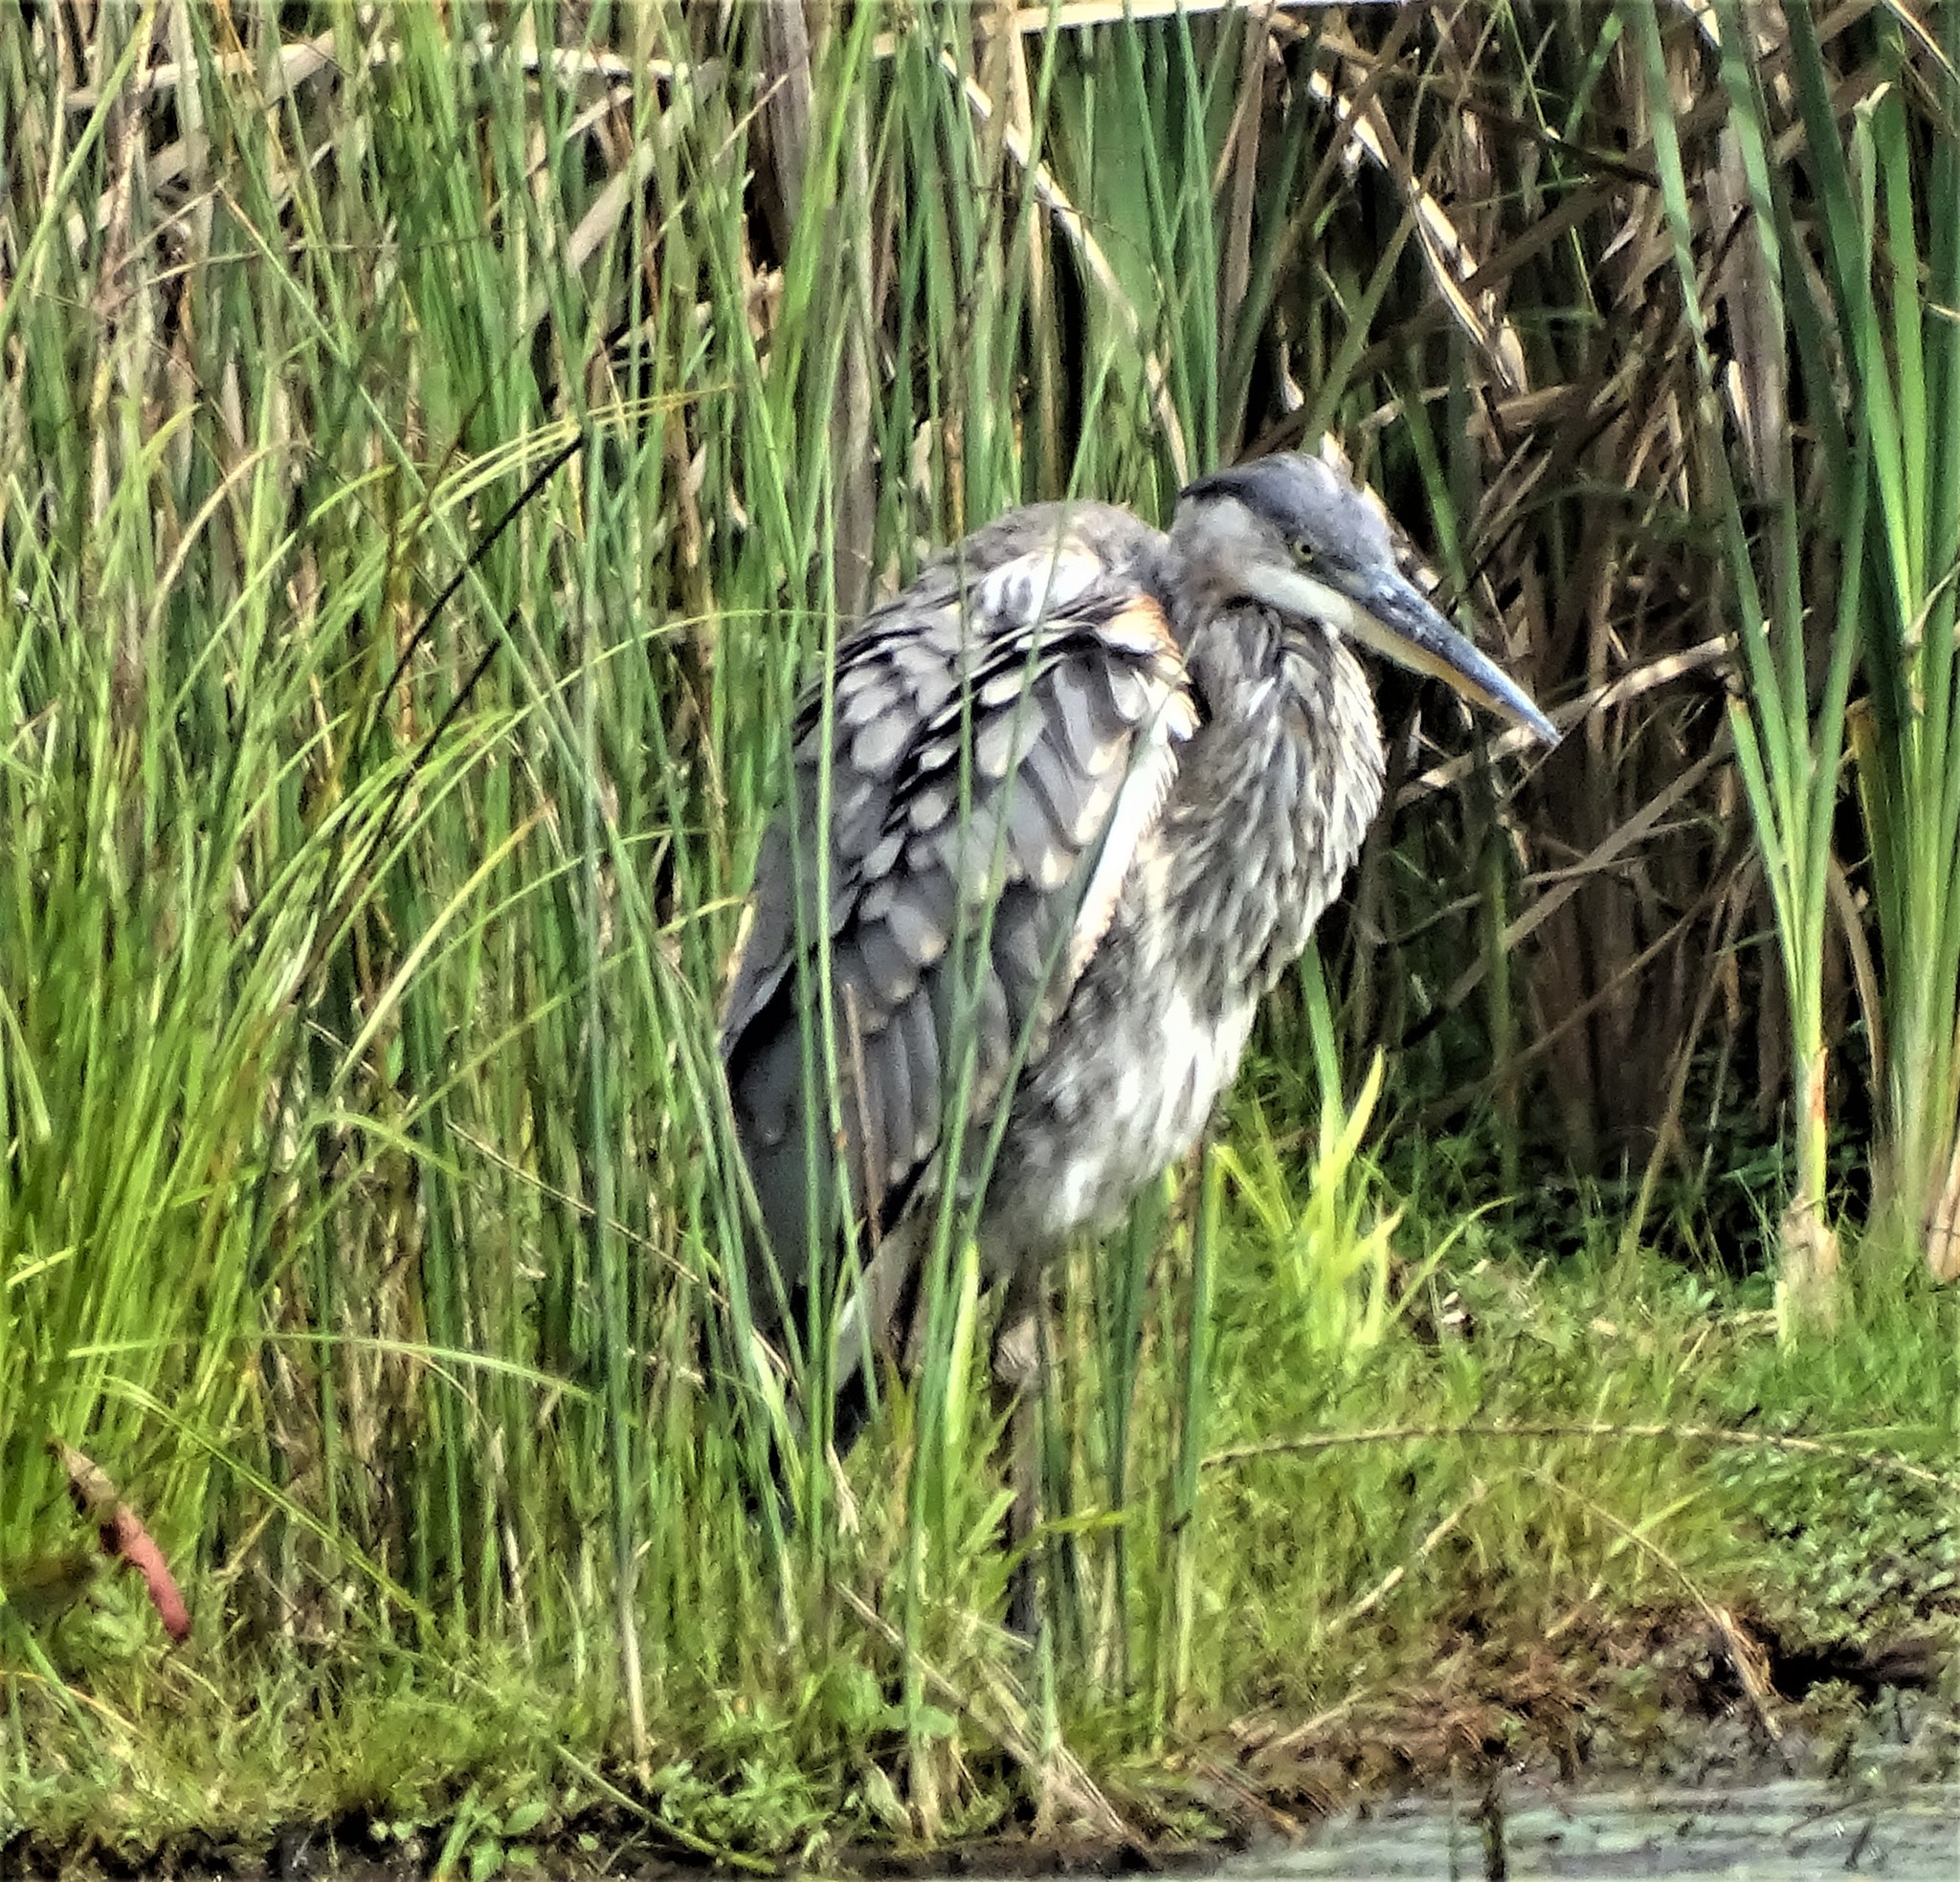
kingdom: Animalia
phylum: Chordata
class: Aves
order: Pelecaniformes
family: Ardeidae
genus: Ardea
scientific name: Ardea herodias
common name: Great blue heron
